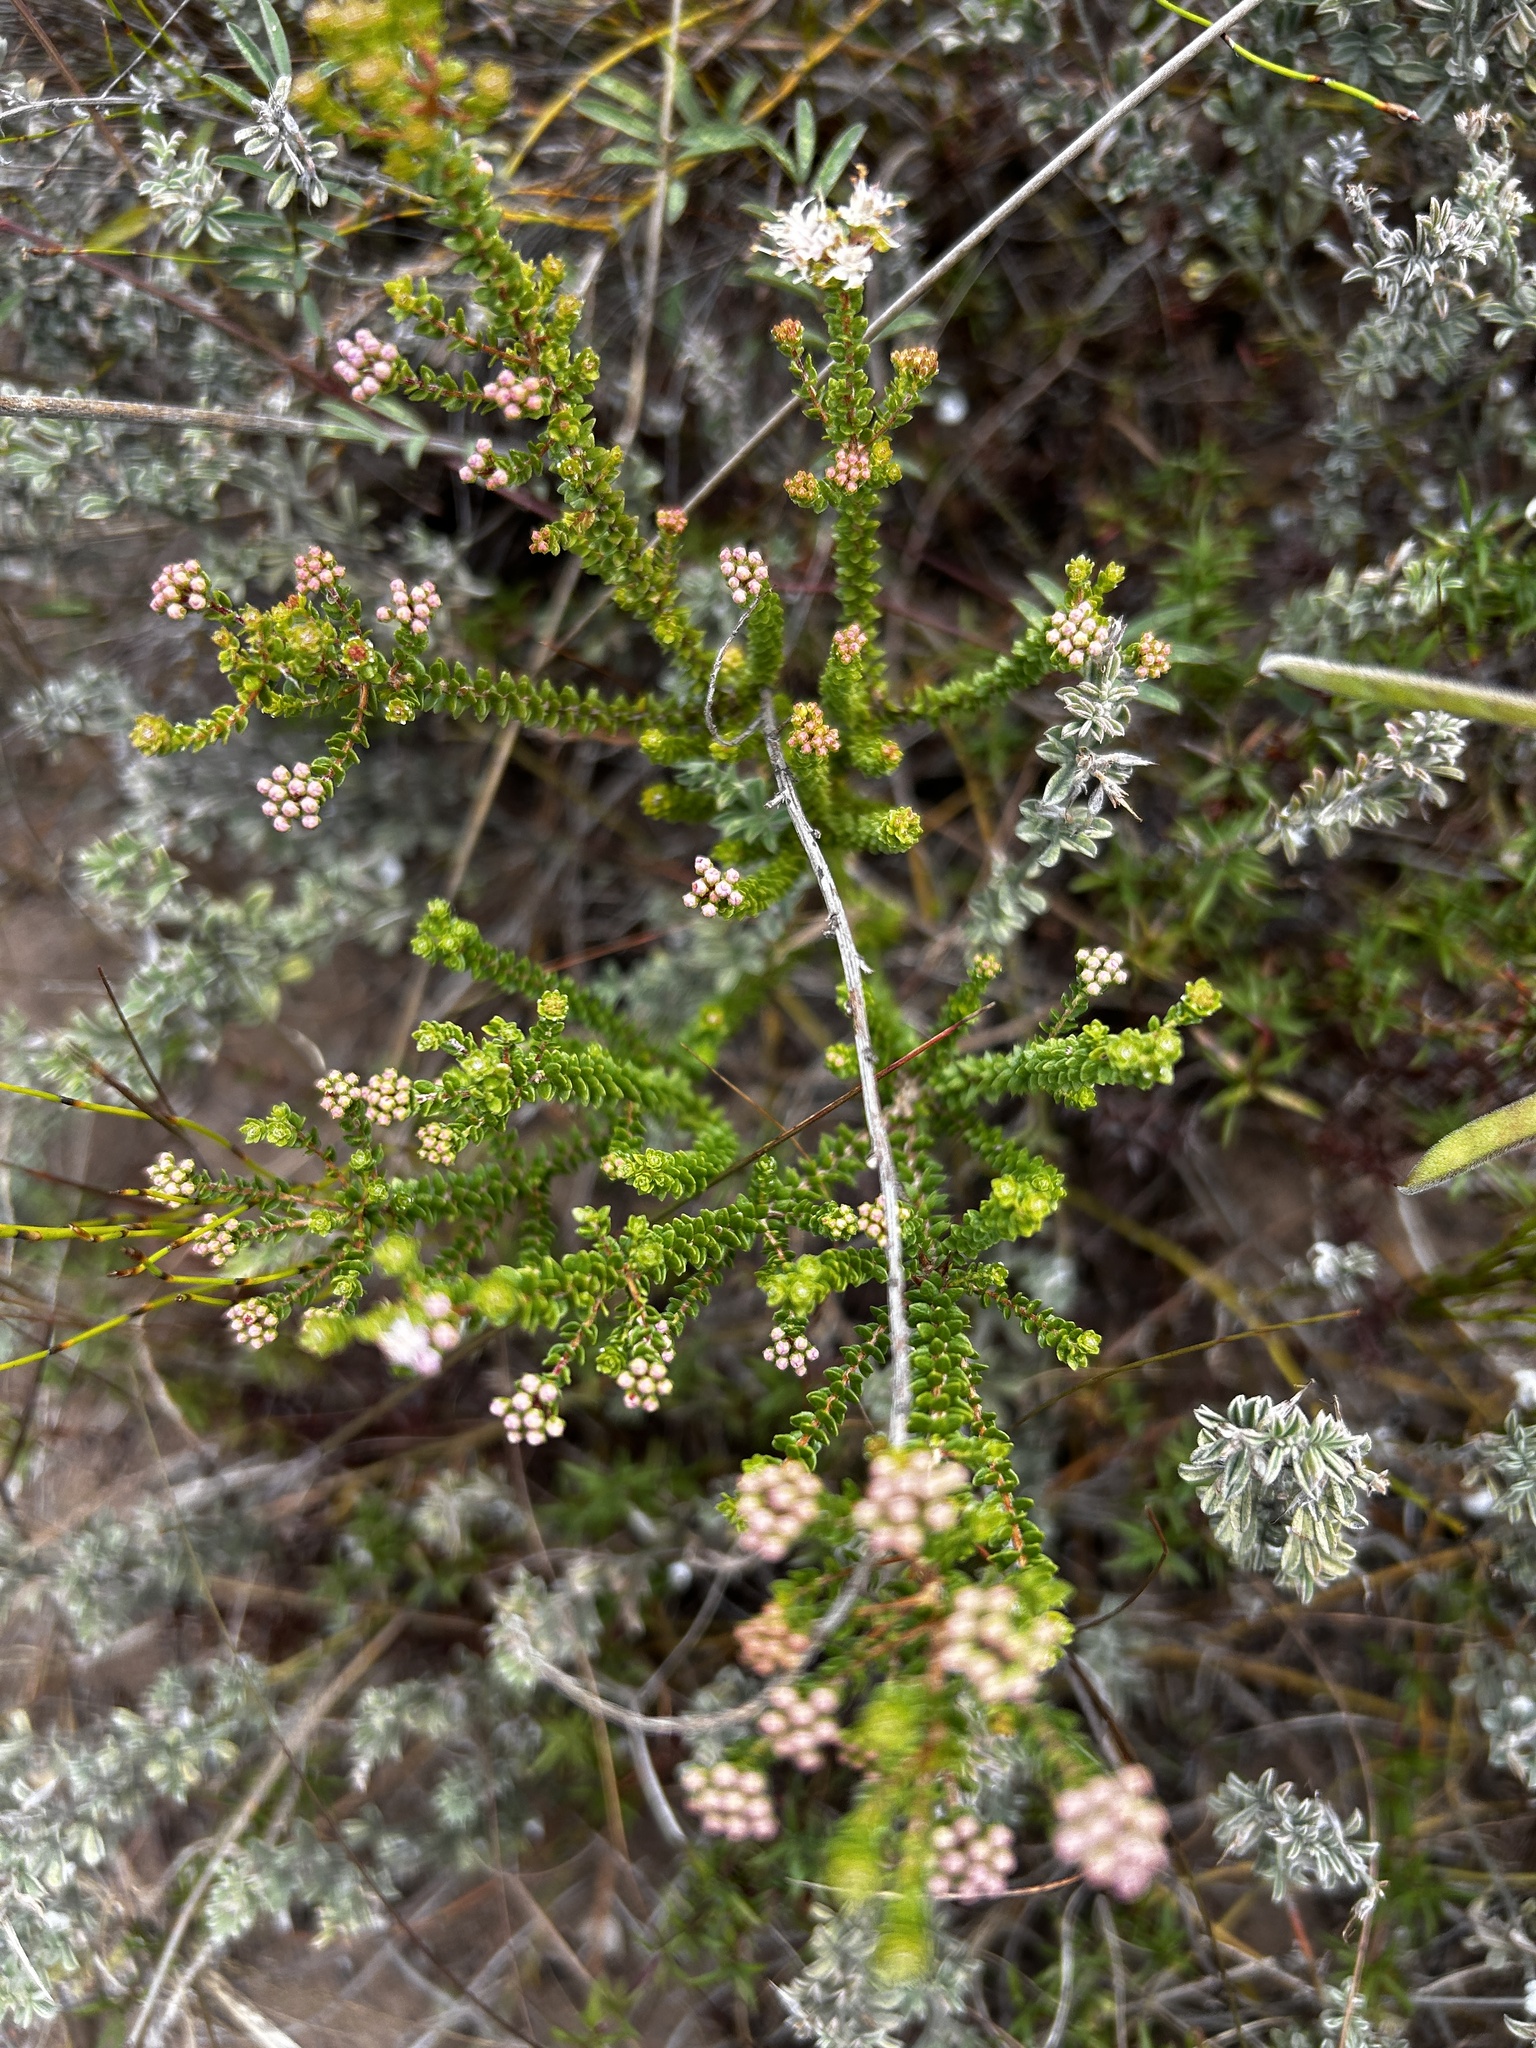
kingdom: Plantae
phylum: Tracheophyta
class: Magnoliopsida
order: Sapindales
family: Rutaceae
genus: Agathosma
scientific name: Agathosma capensis
